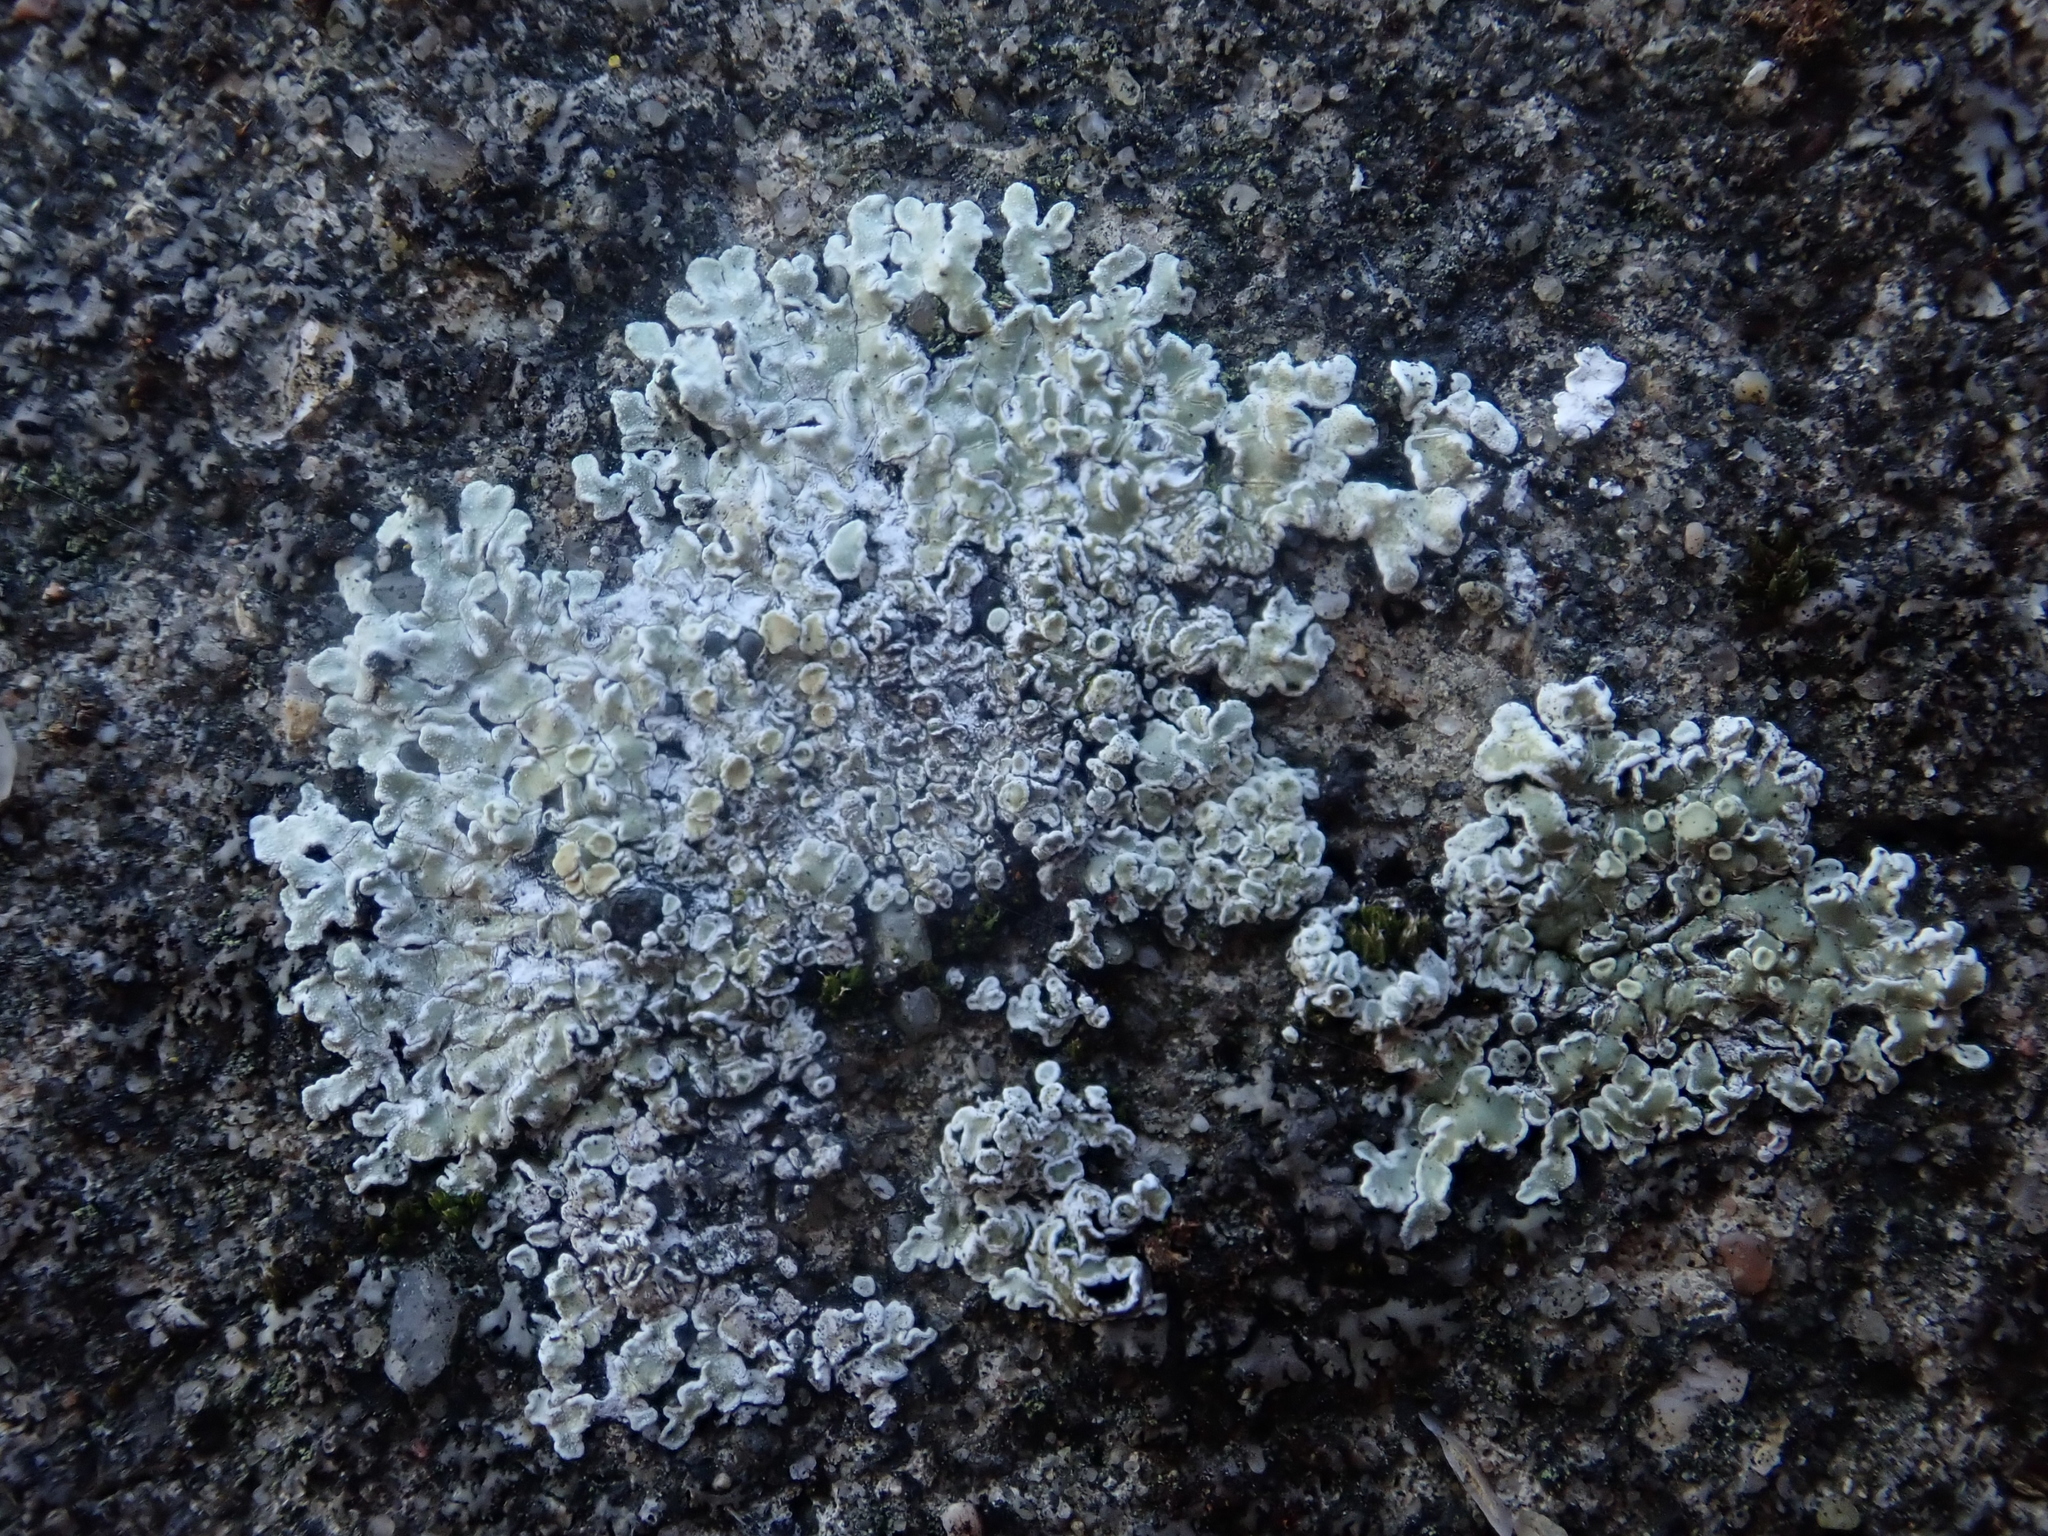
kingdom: Fungi
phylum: Ascomycota
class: Lecanoromycetes
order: Lecanorales
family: Lecanoraceae
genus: Protoparmeliopsis
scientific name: Protoparmeliopsis muralis
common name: Stonewall rim lichen
